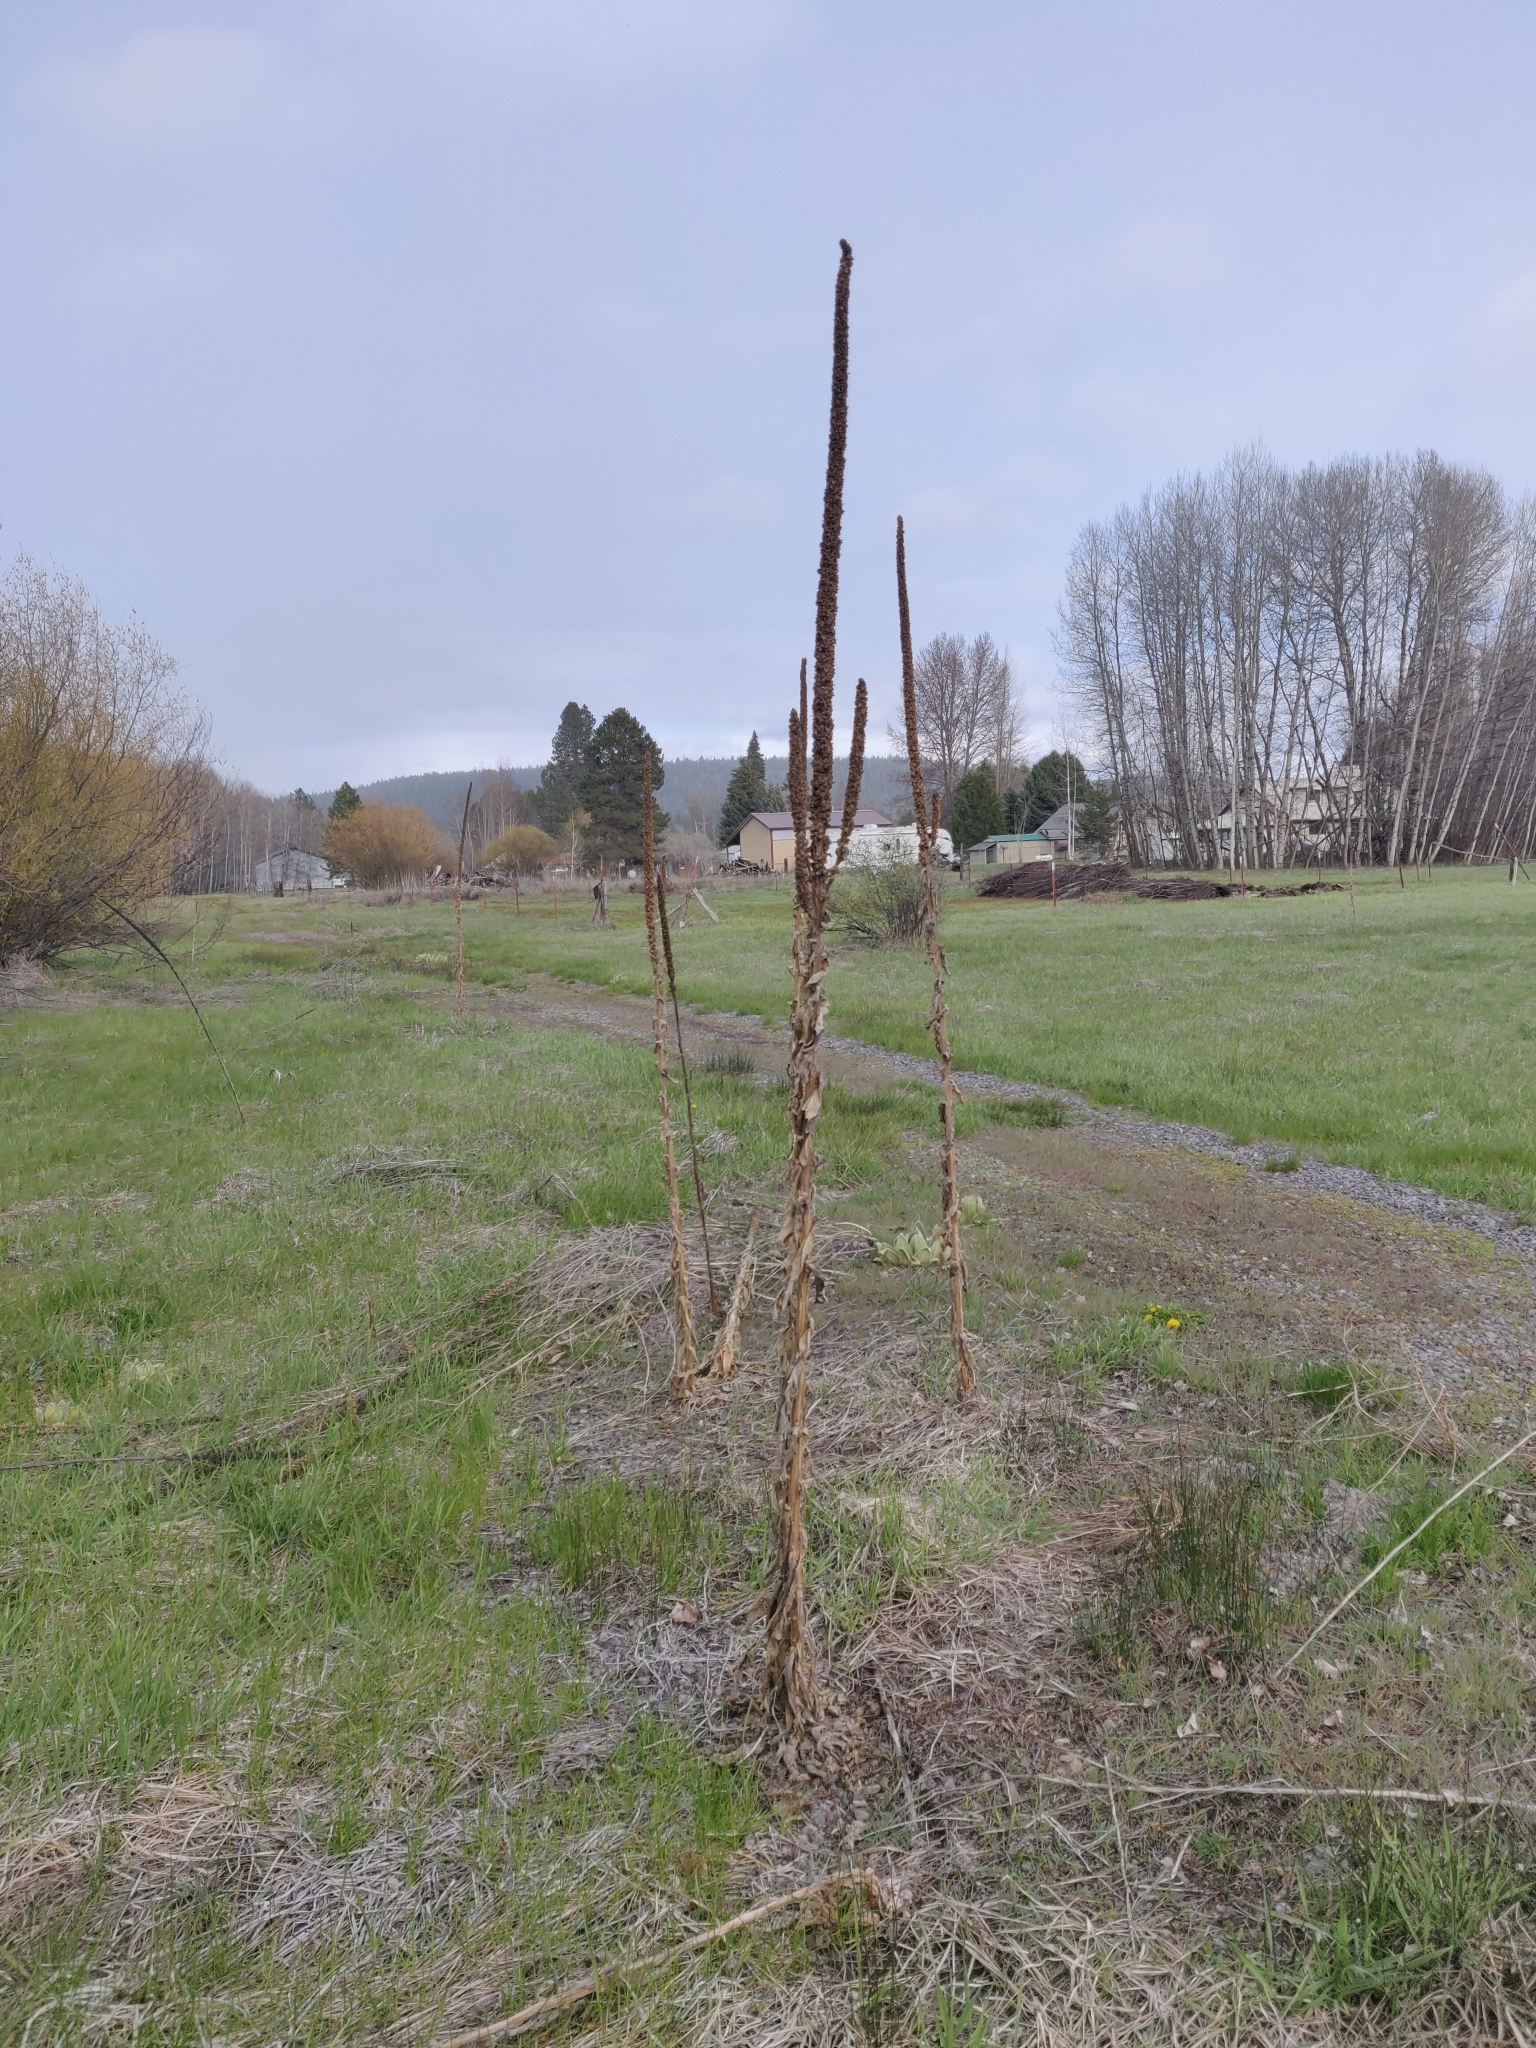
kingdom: Plantae
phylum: Tracheophyta
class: Magnoliopsida
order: Lamiales
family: Scrophulariaceae
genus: Verbascum
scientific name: Verbascum thapsus
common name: Common mullein
